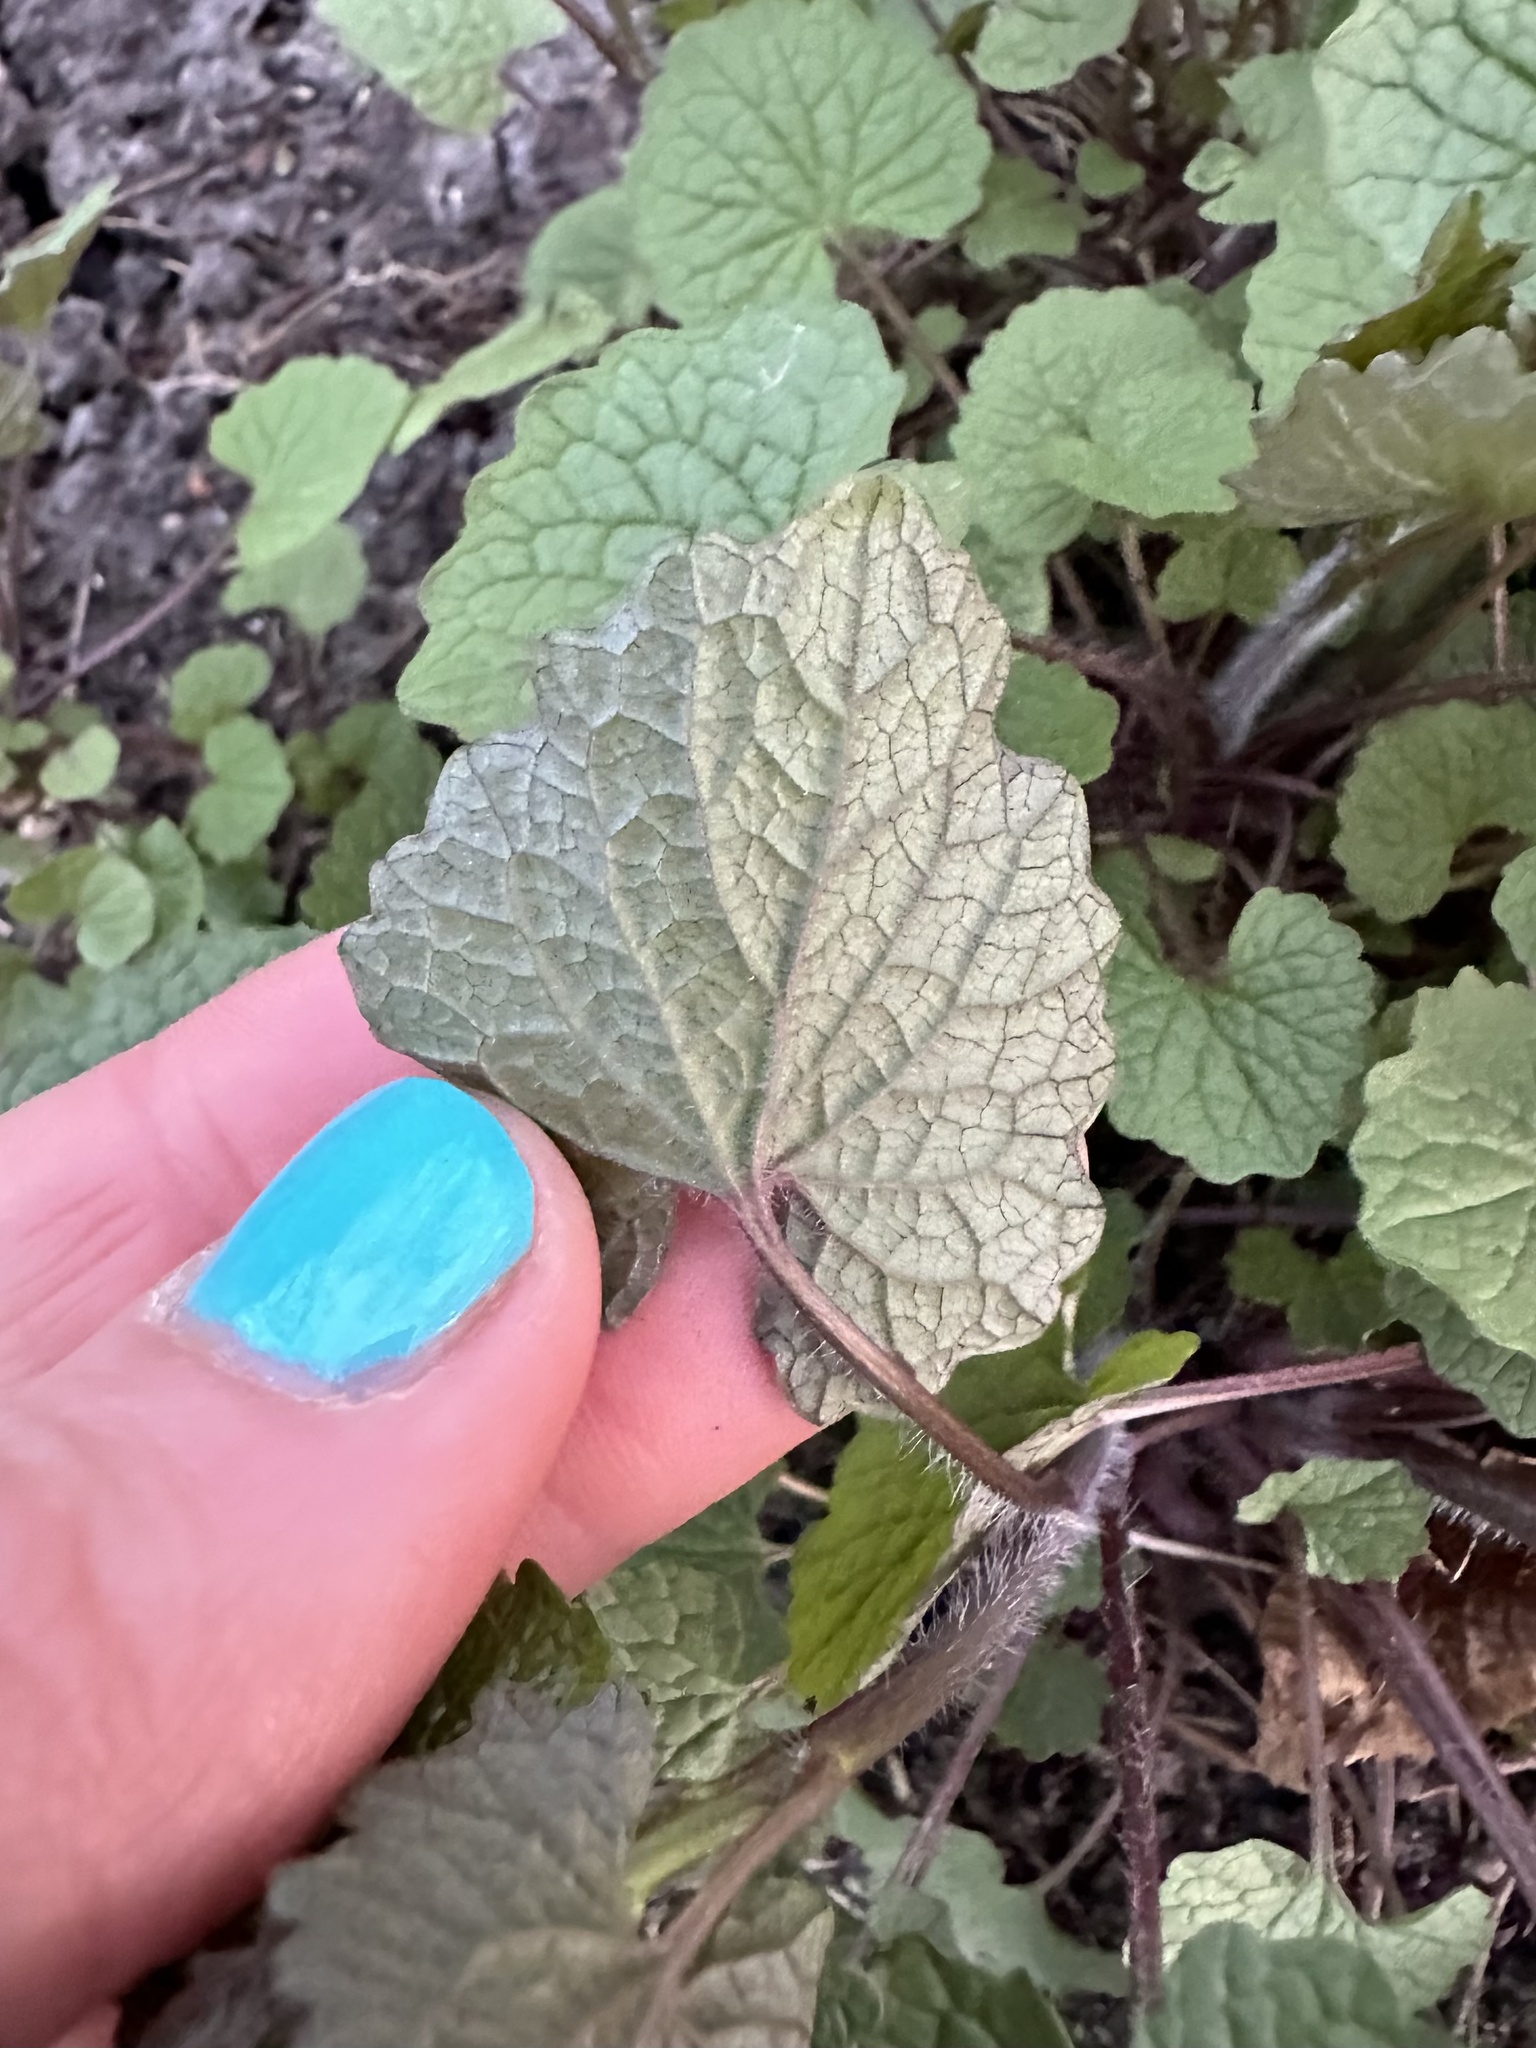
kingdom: Plantae
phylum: Tracheophyta
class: Magnoliopsida
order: Brassicales
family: Brassicaceae
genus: Alliaria
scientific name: Alliaria petiolata
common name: Garlic mustard
